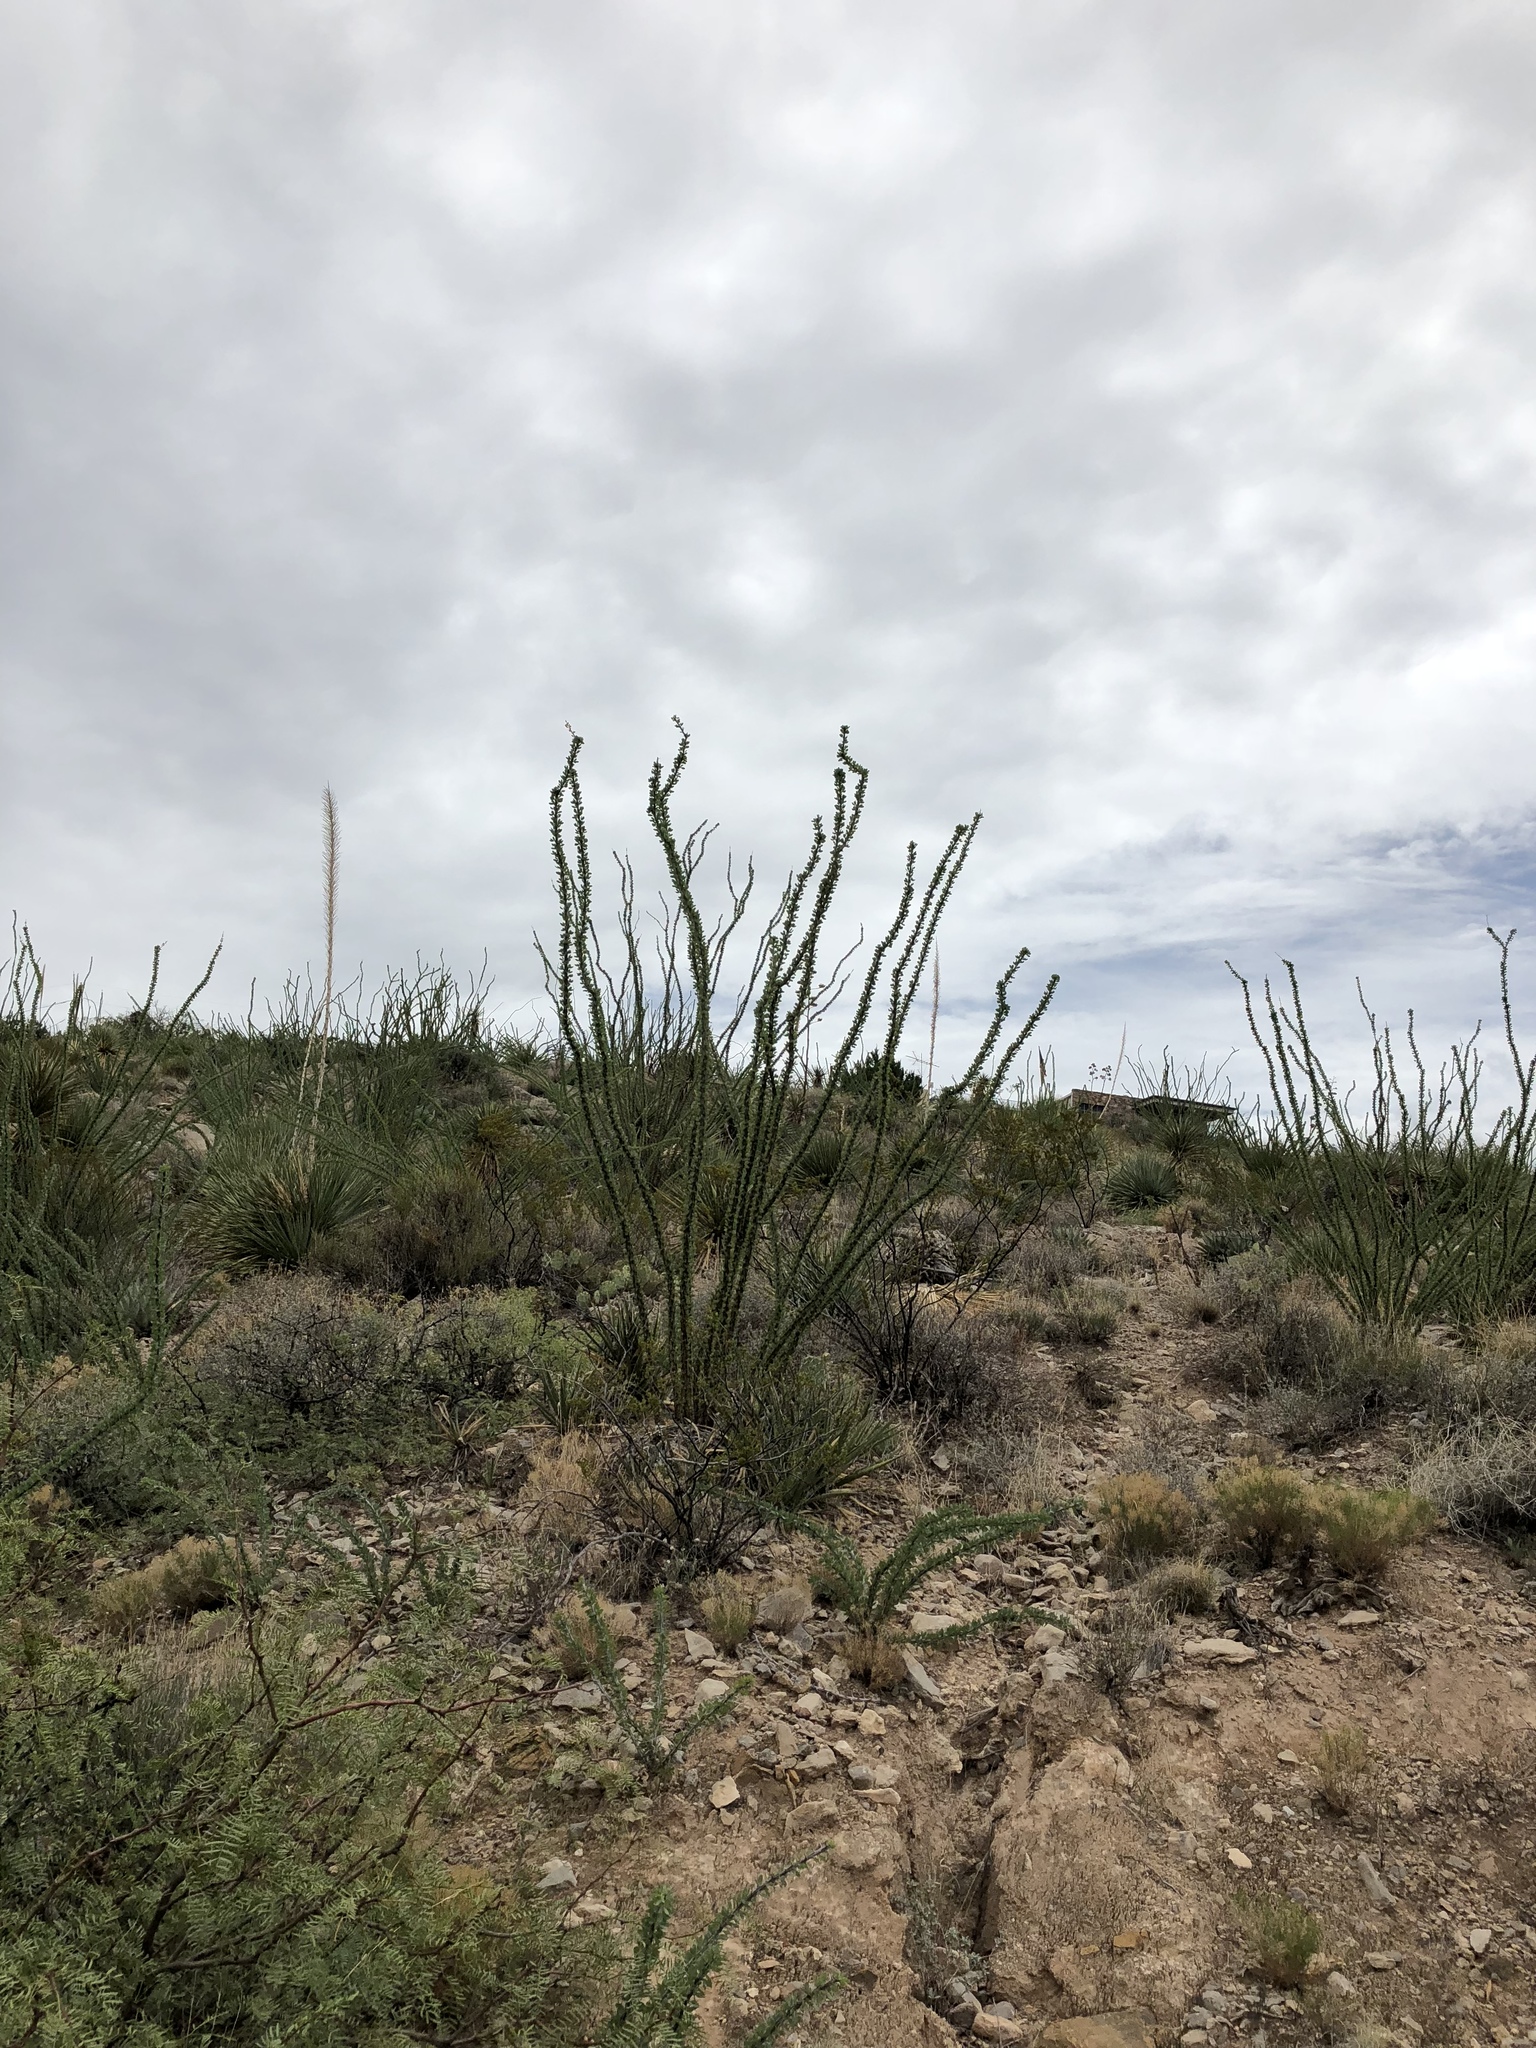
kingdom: Plantae
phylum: Tracheophyta
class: Magnoliopsida
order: Ericales
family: Fouquieriaceae
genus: Fouquieria
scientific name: Fouquieria splendens
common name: Vine-cactus
